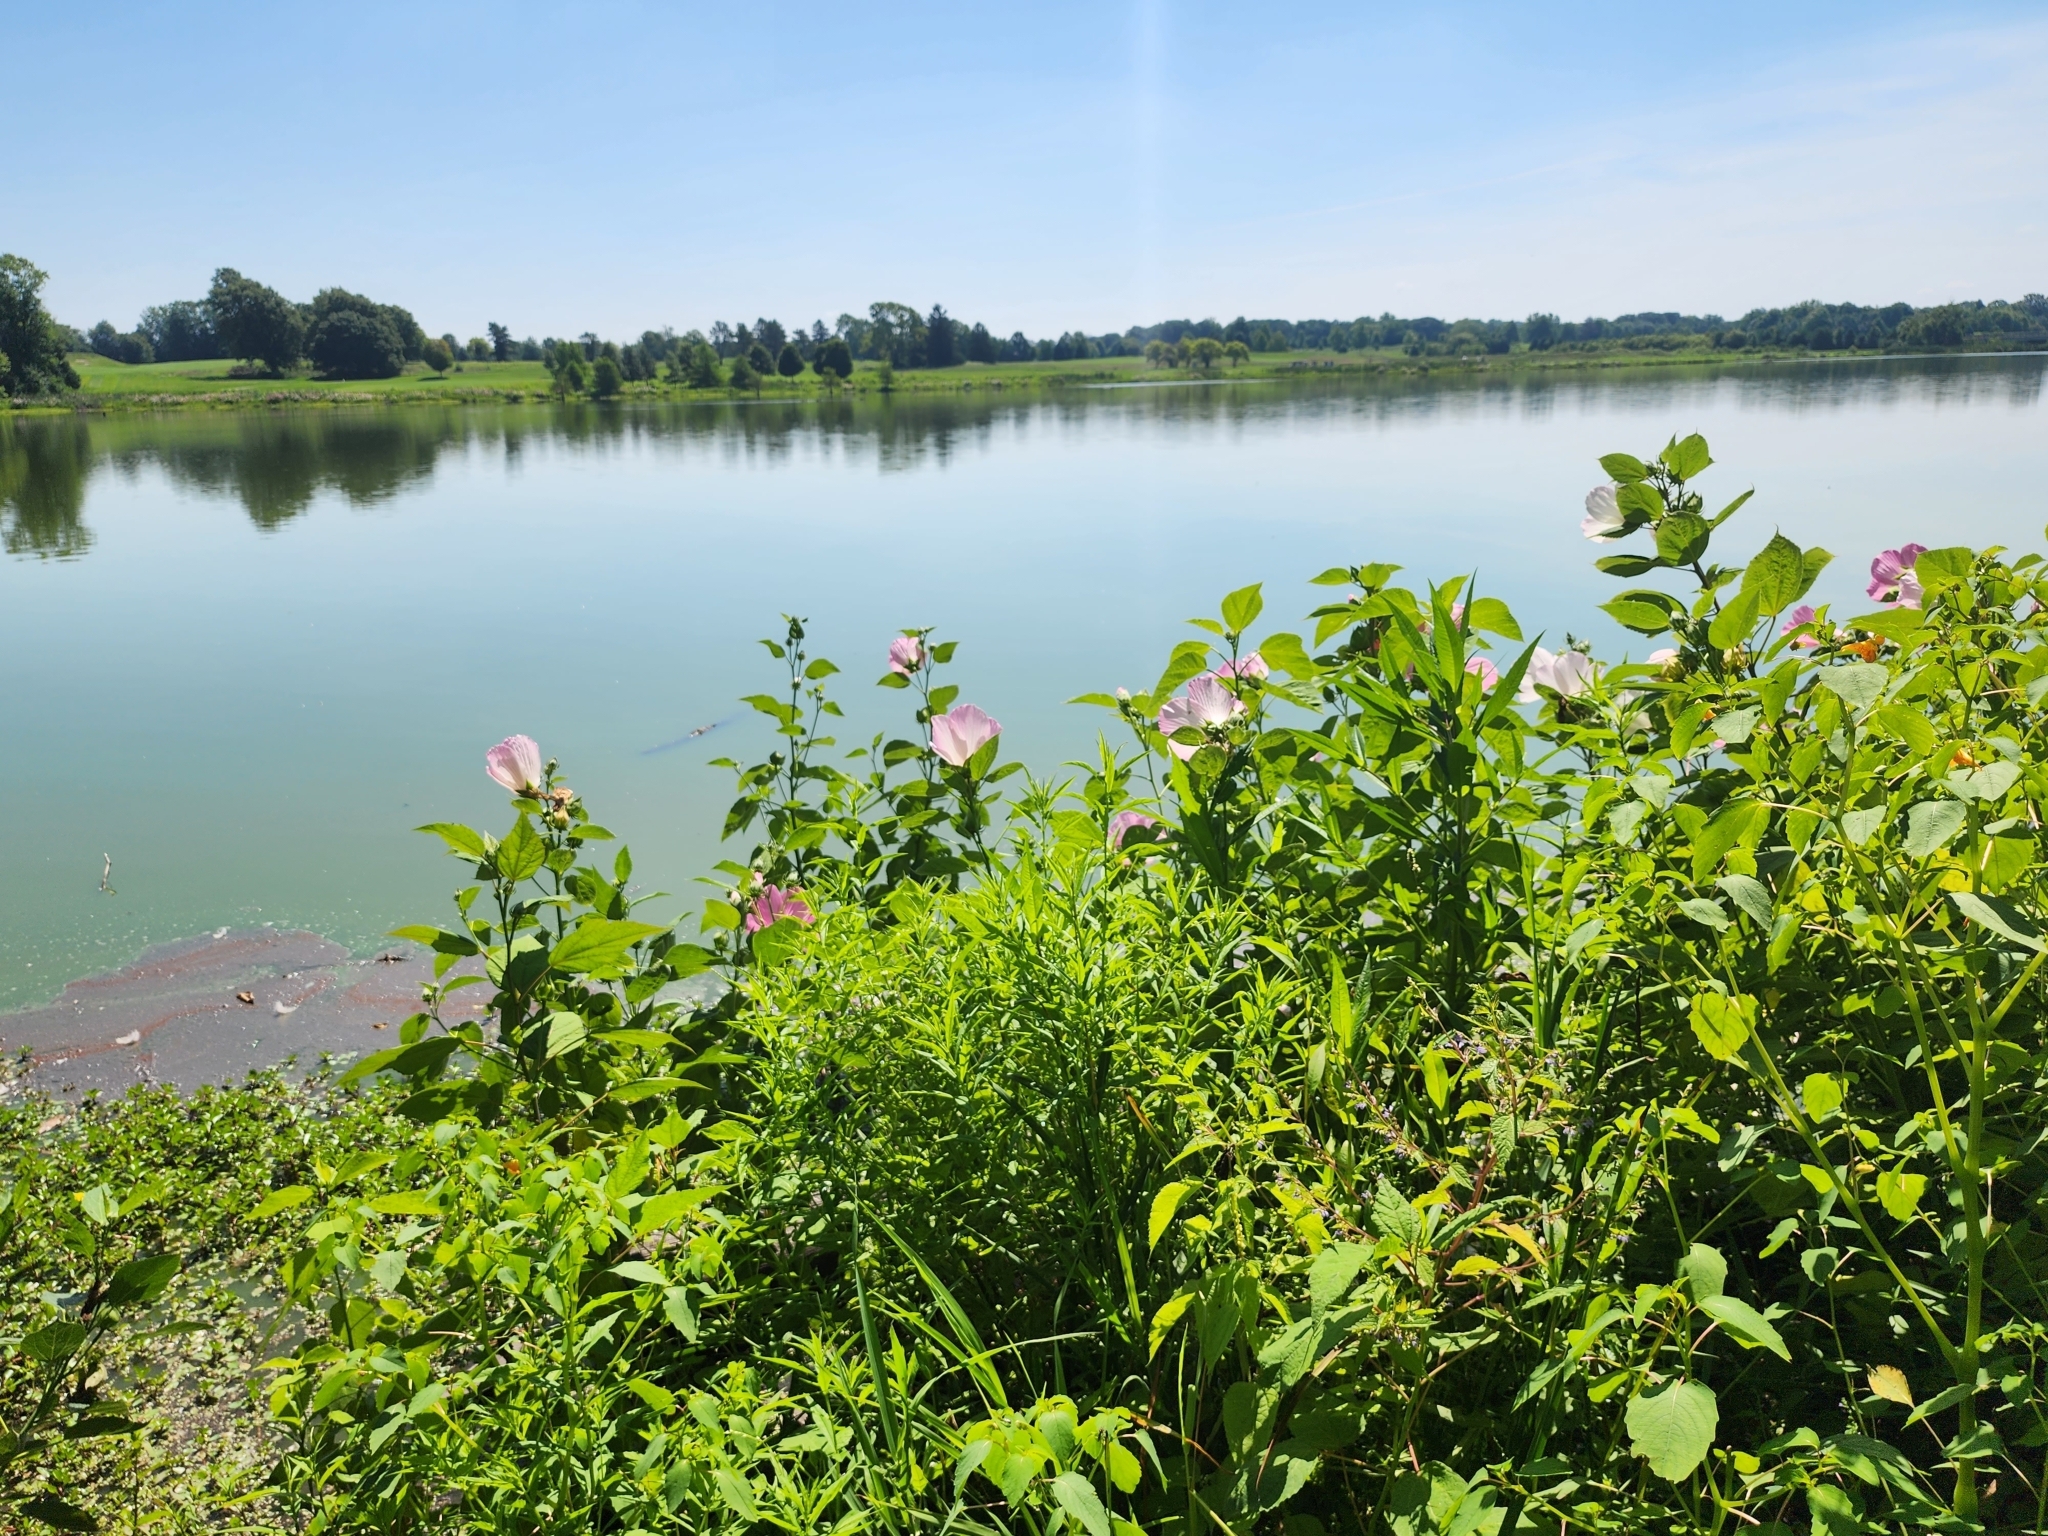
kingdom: Plantae
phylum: Tracheophyta
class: Magnoliopsida
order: Malvales
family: Malvaceae
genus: Hibiscus
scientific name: Hibiscus moscheutos
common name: Common rose-mallow
